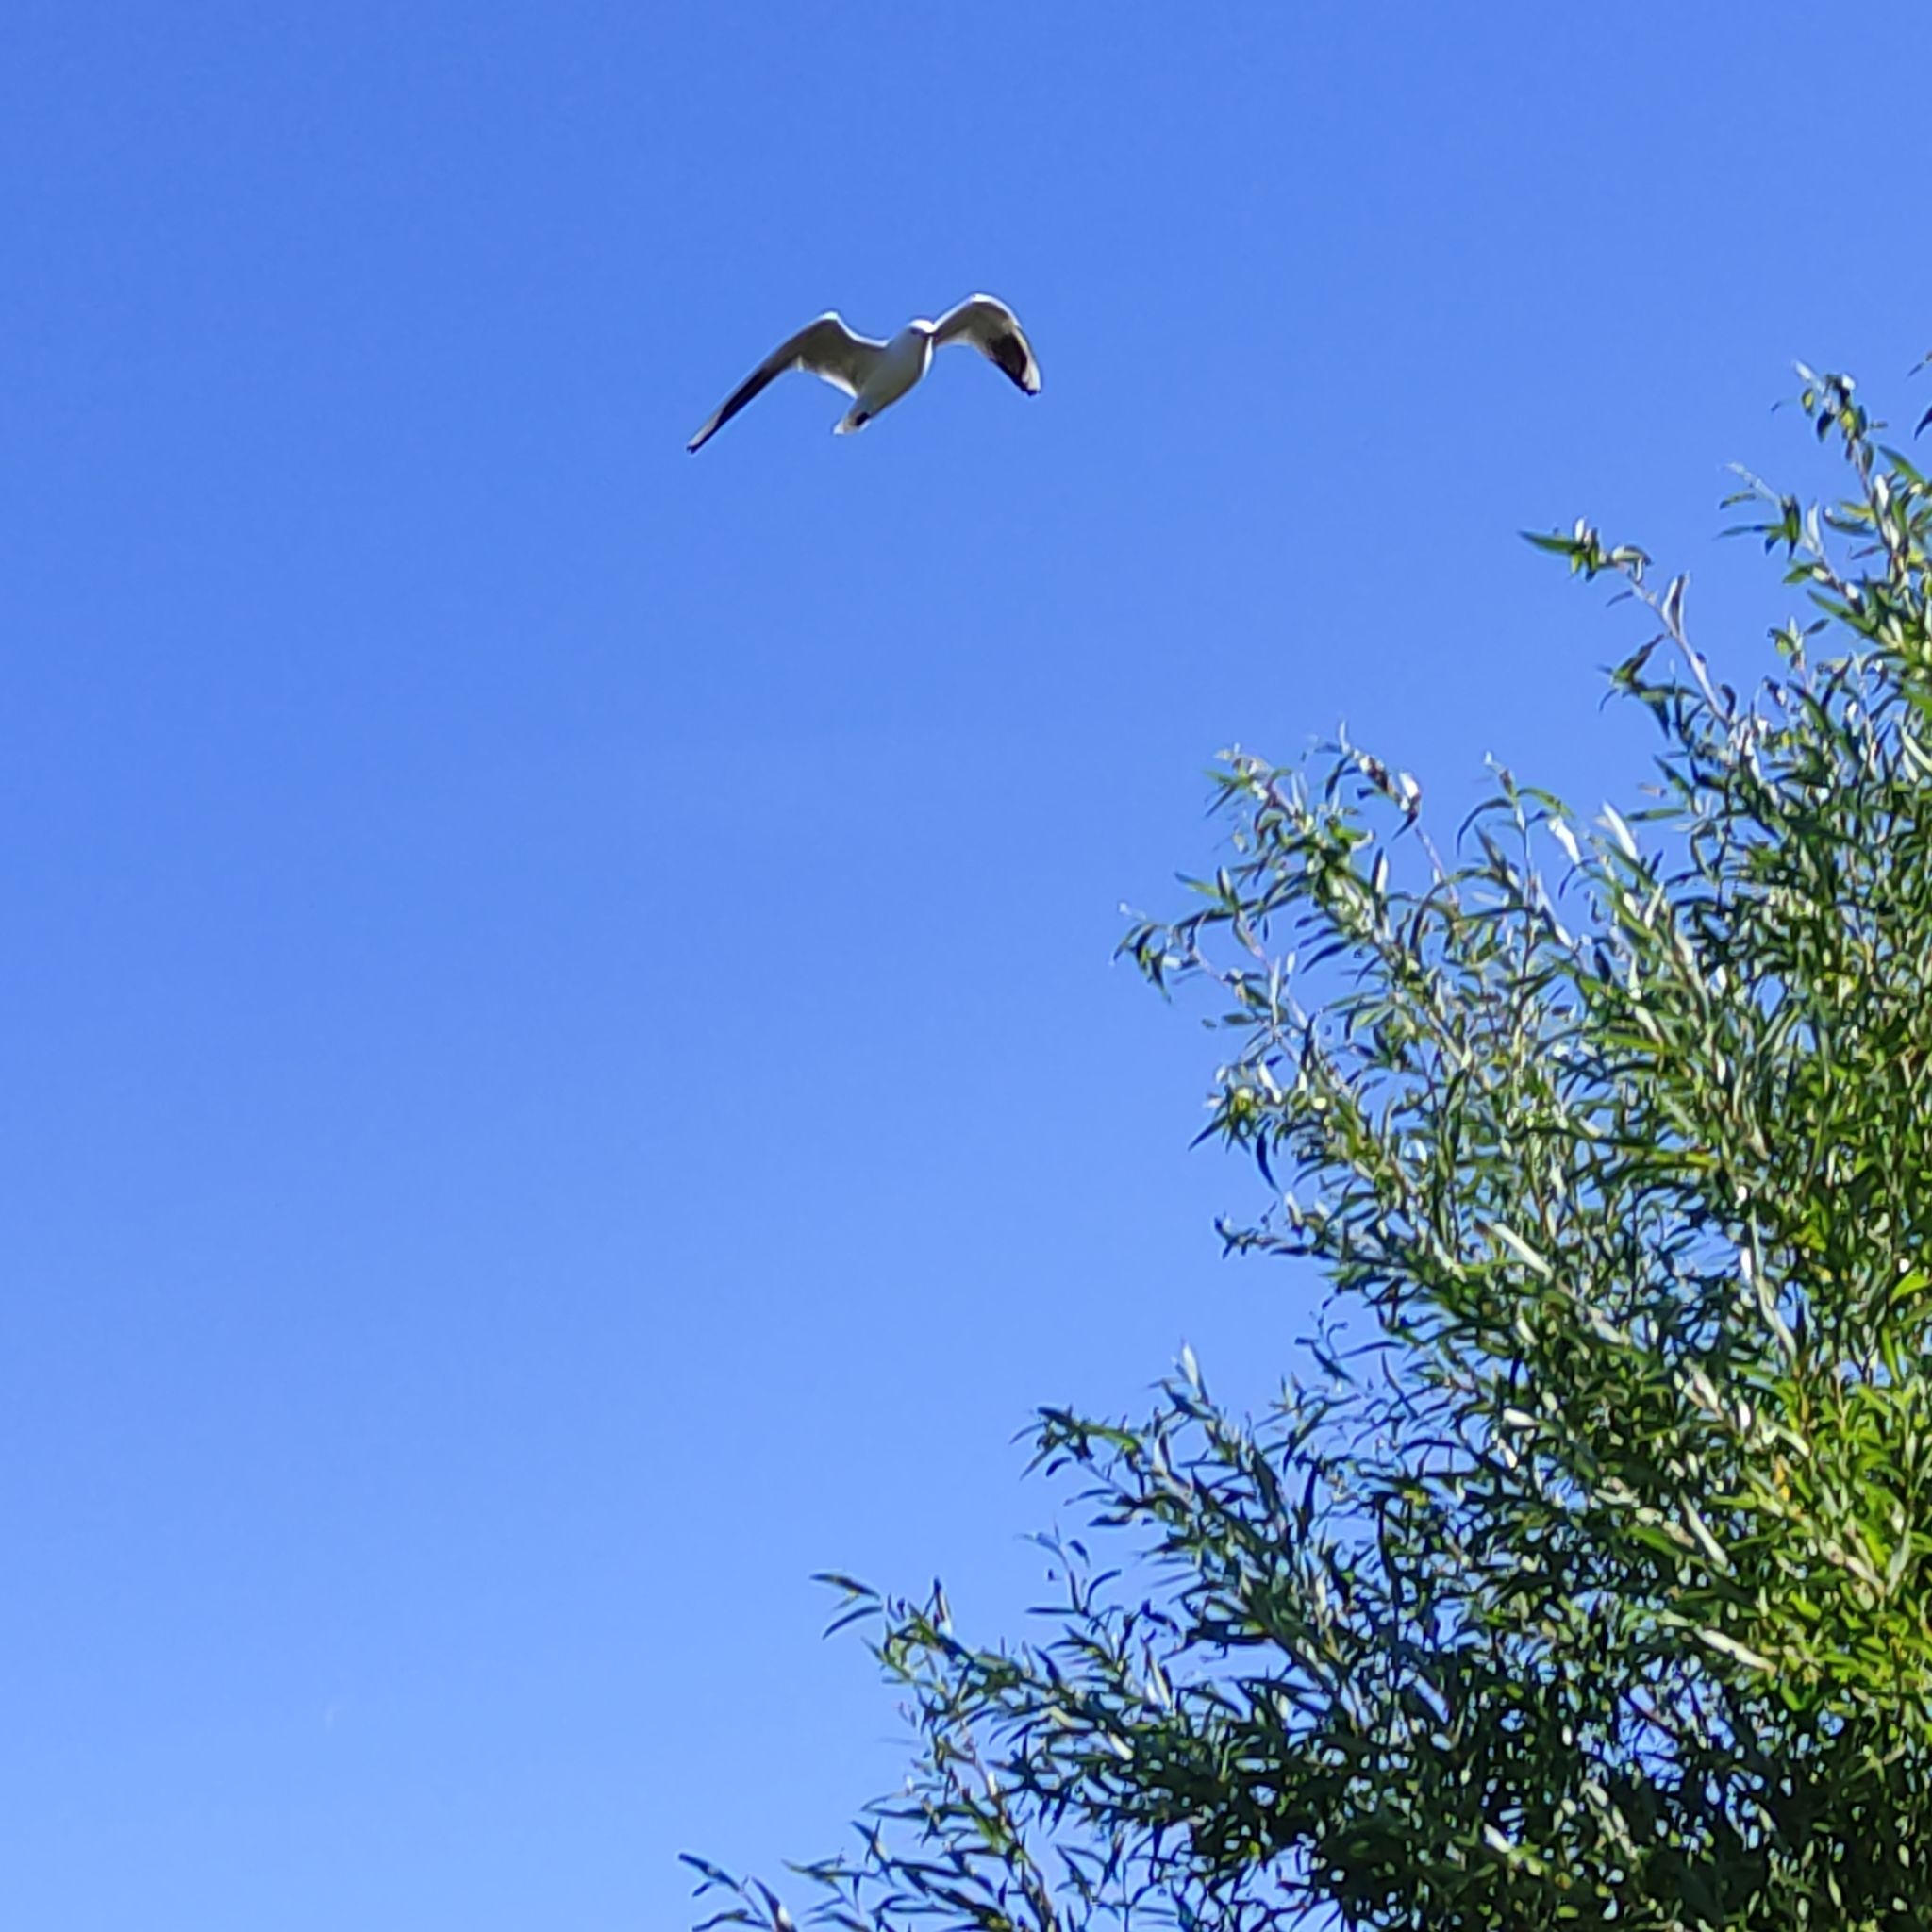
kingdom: Animalia
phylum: Chordata
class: Aves
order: Charadriiformes
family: Laridae
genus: Chroicocephalus
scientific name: Chroicocephalus bulleri
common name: Black-billed gull
